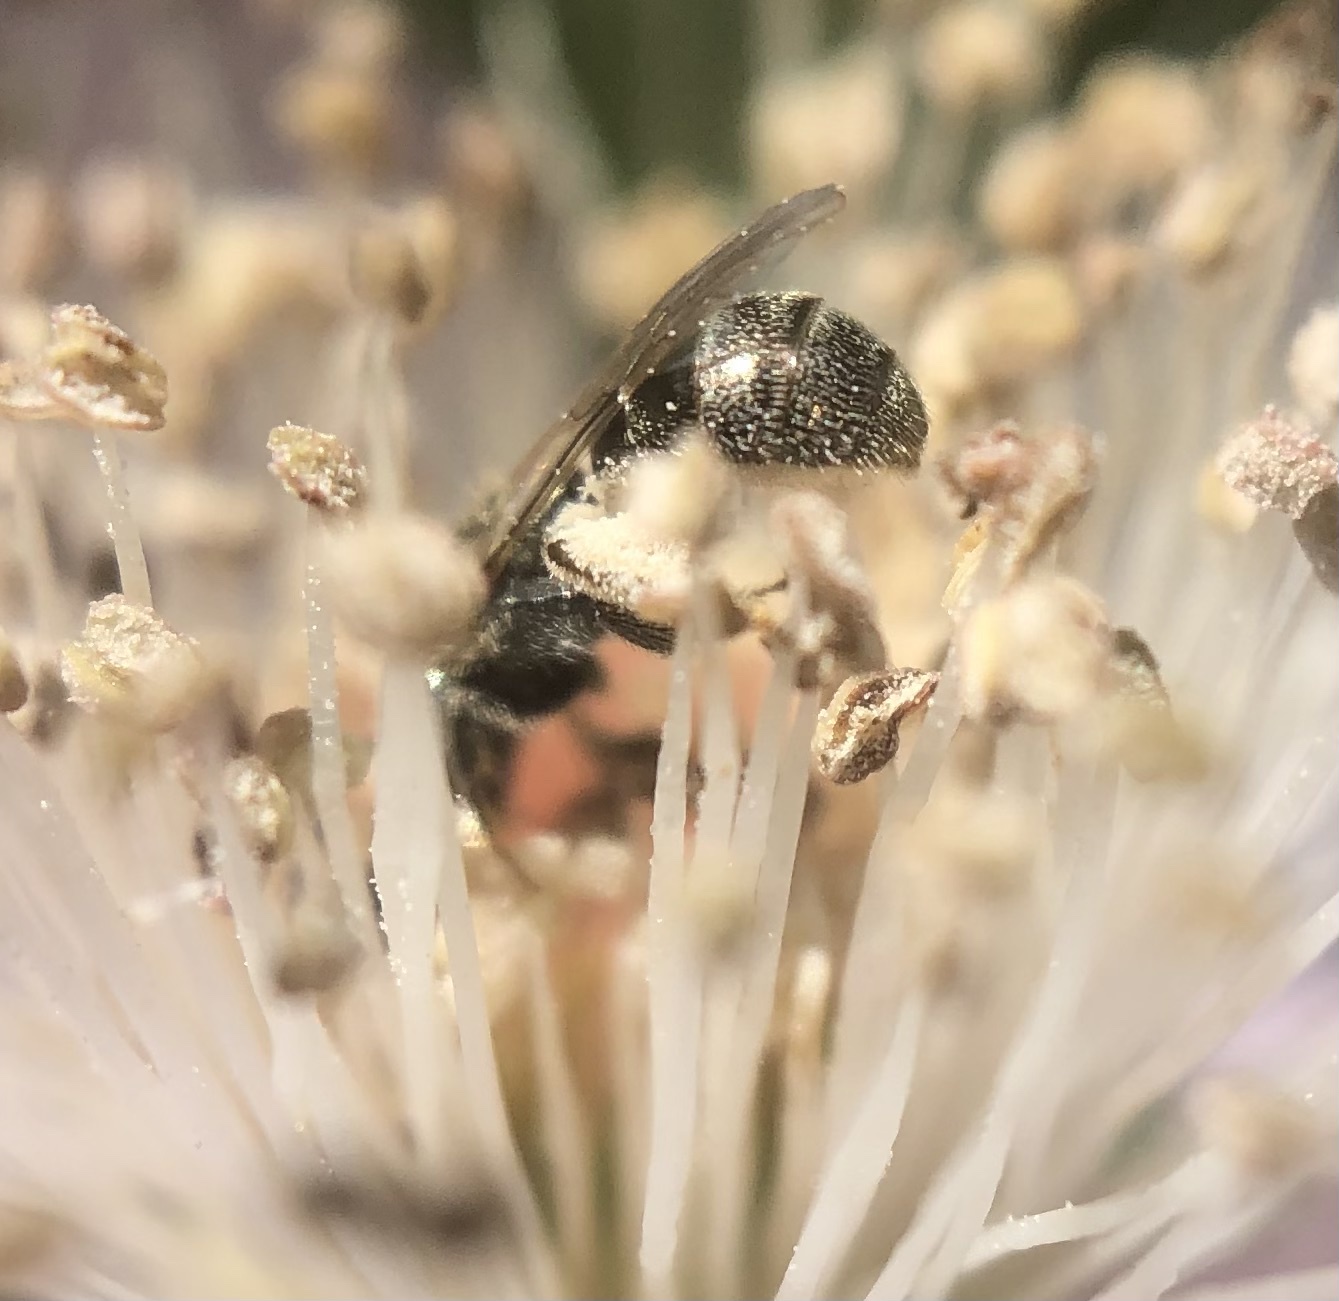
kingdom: Animalia
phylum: Arthropoda
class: Insecta
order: Hymenoptera
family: Halictidae
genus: Lasioglossum
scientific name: Lasioglossum imitatum
